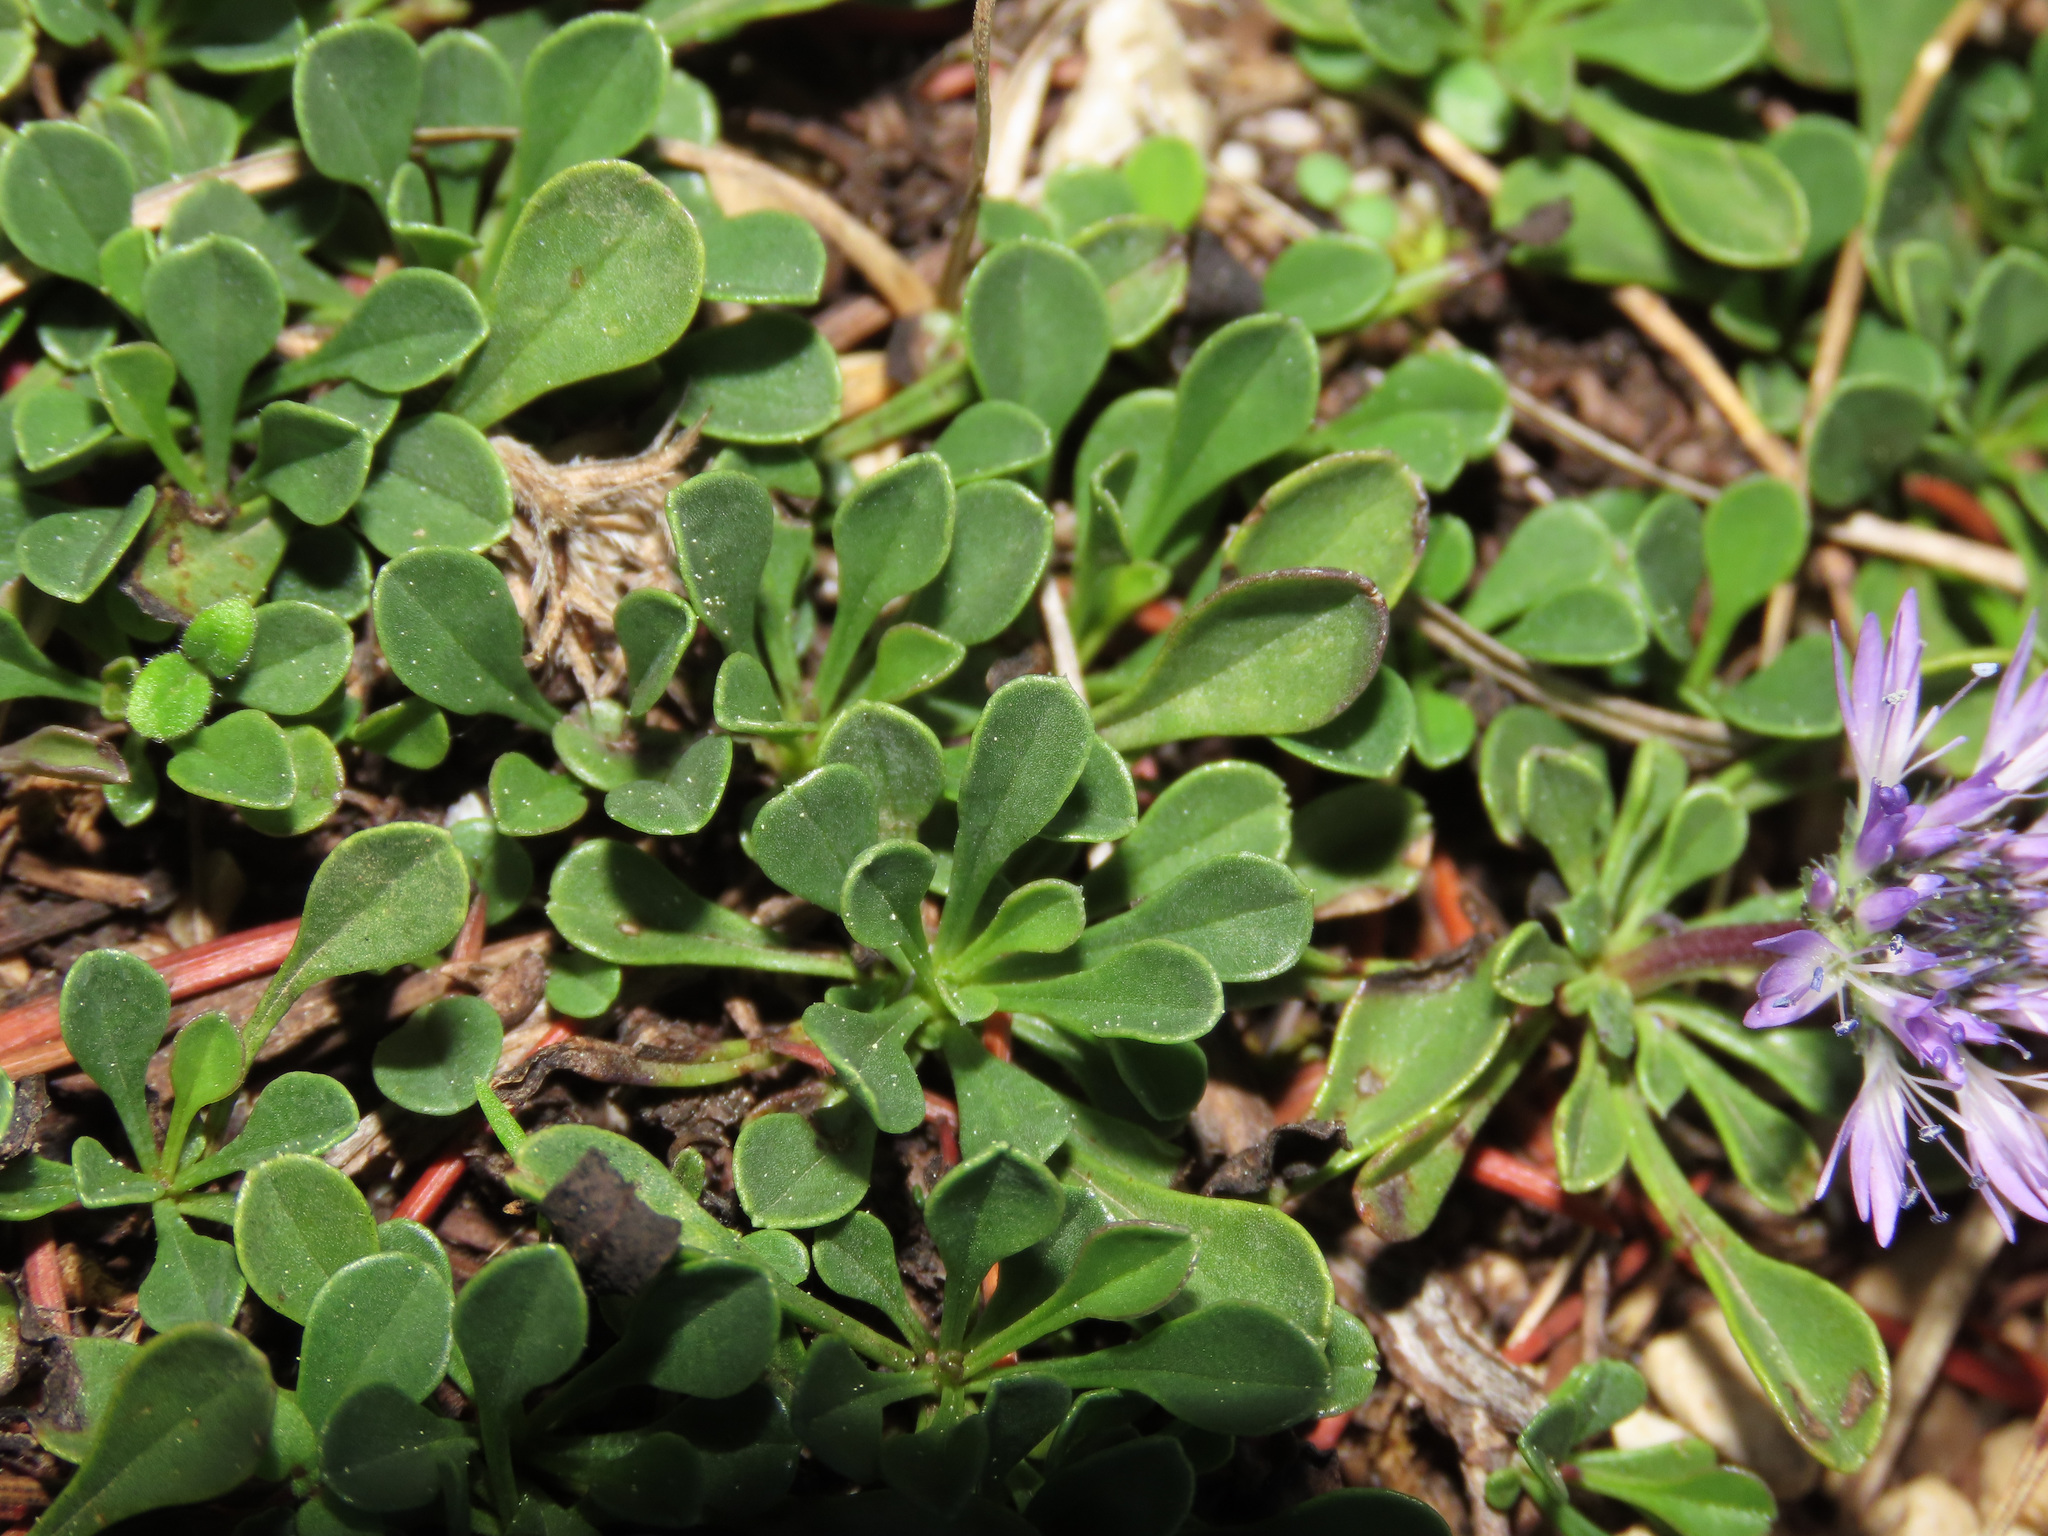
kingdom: Plantae
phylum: Tracheophyta
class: Magnoliopsida
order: Lamiales
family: Plantaginaceae
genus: Globularia
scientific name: Globularia meridionalis
